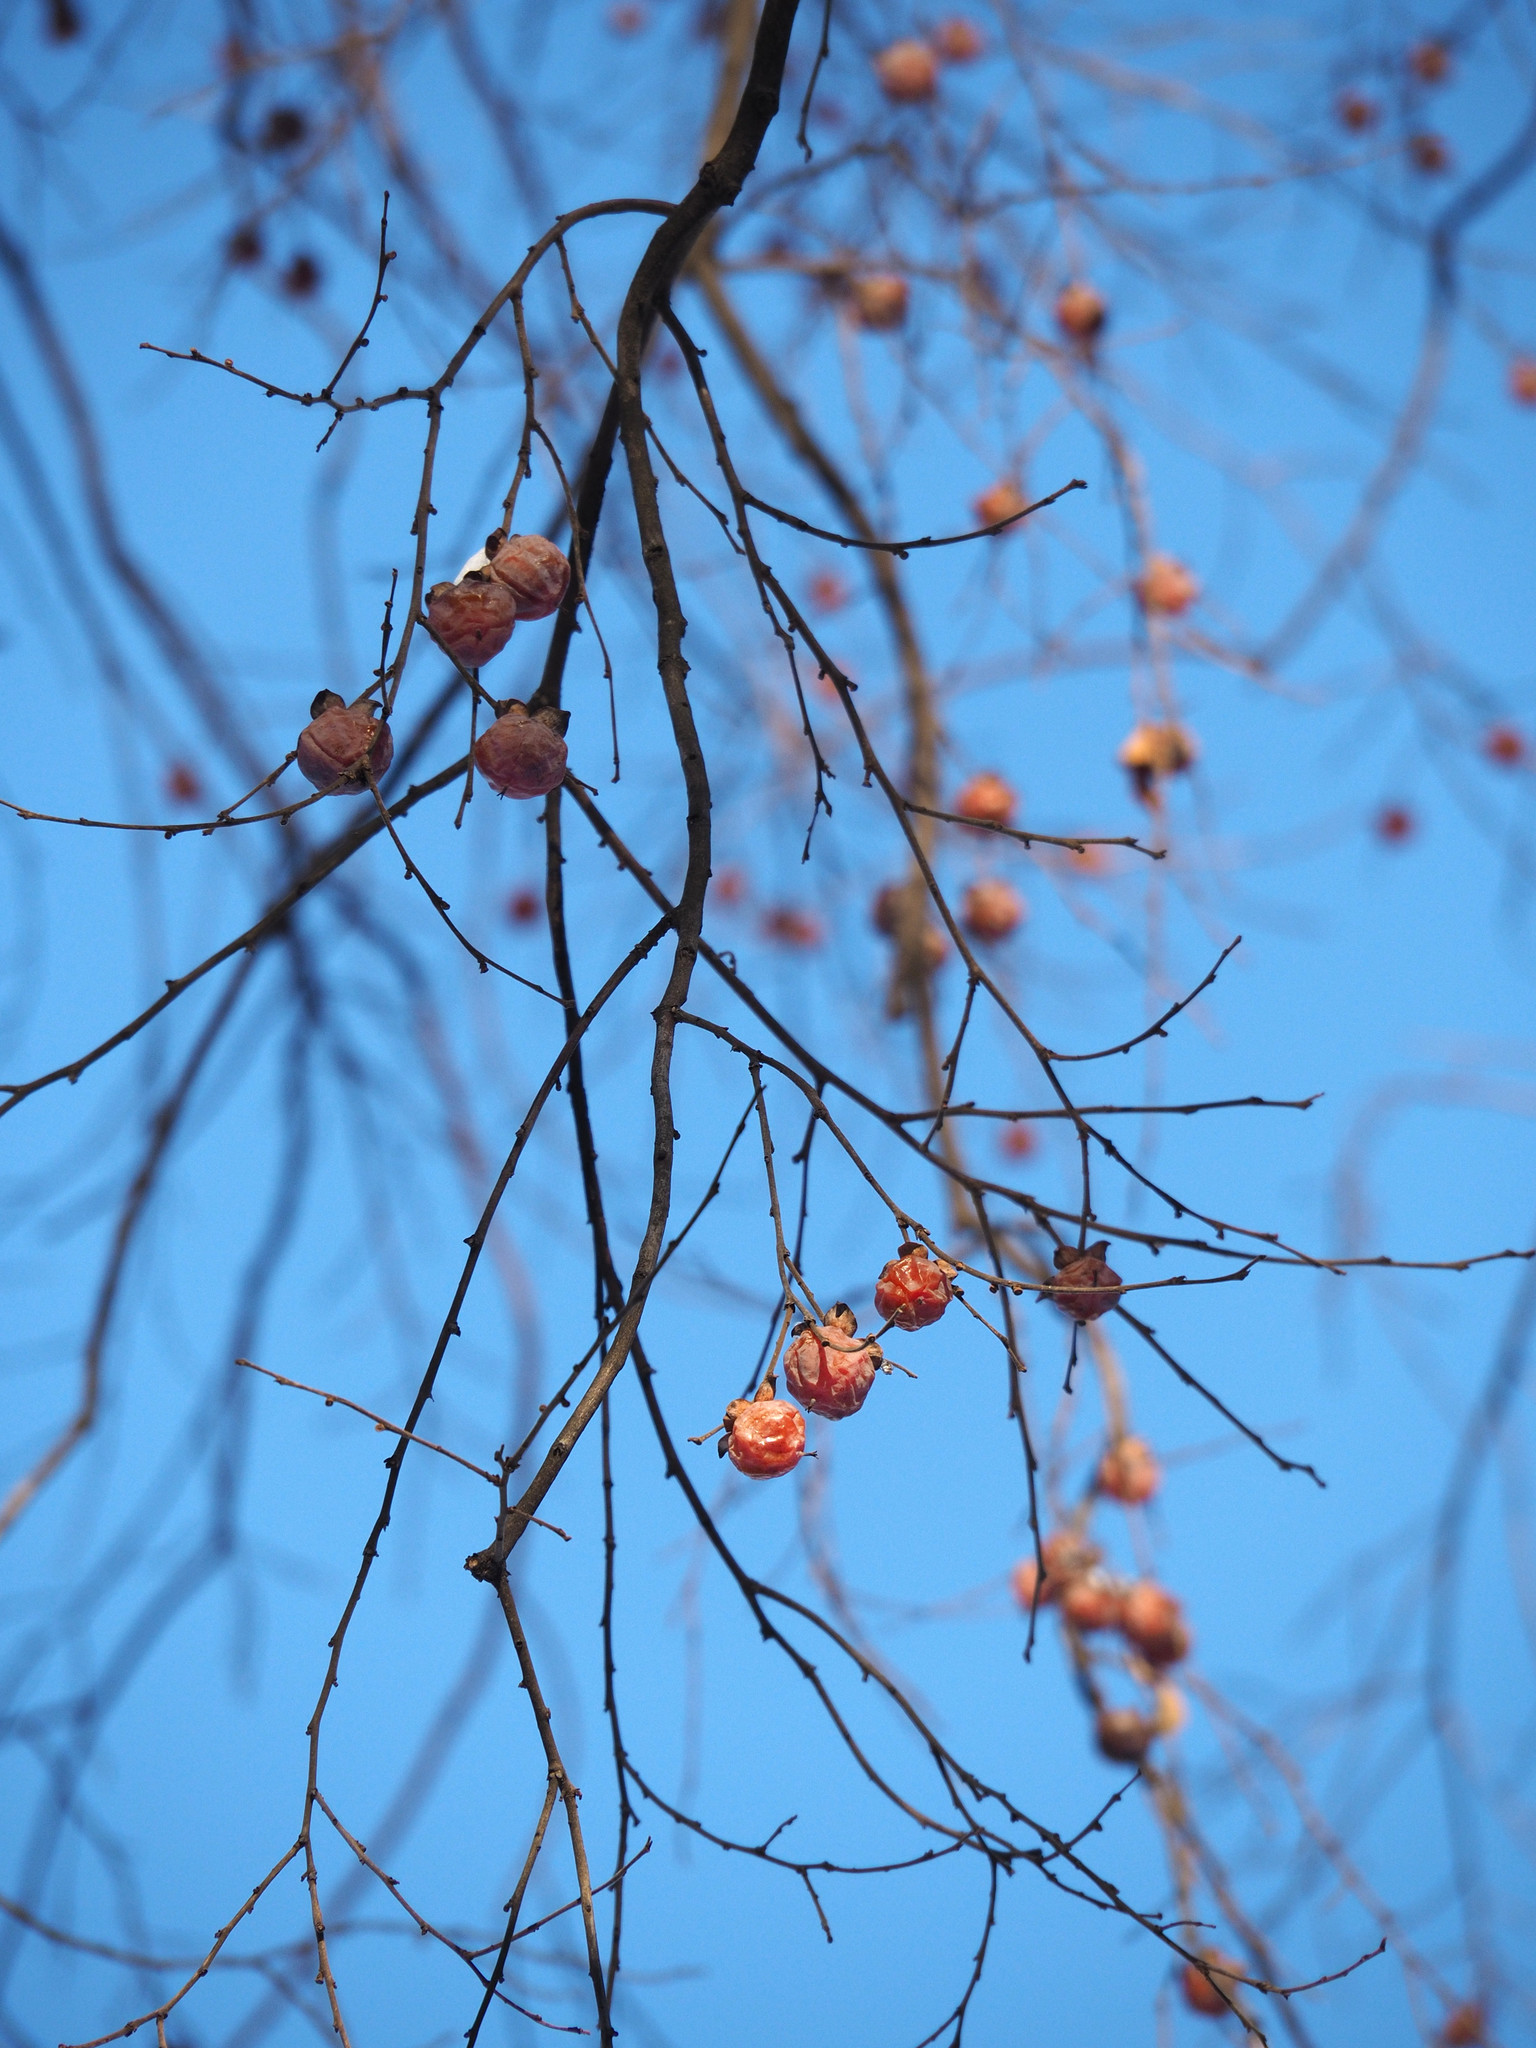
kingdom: Plantae
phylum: Tracheophyta
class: Magnoliopsida
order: Ericales
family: Ebenaceae
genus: Diospyros
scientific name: Diospyros virginiana
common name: Persimmon
